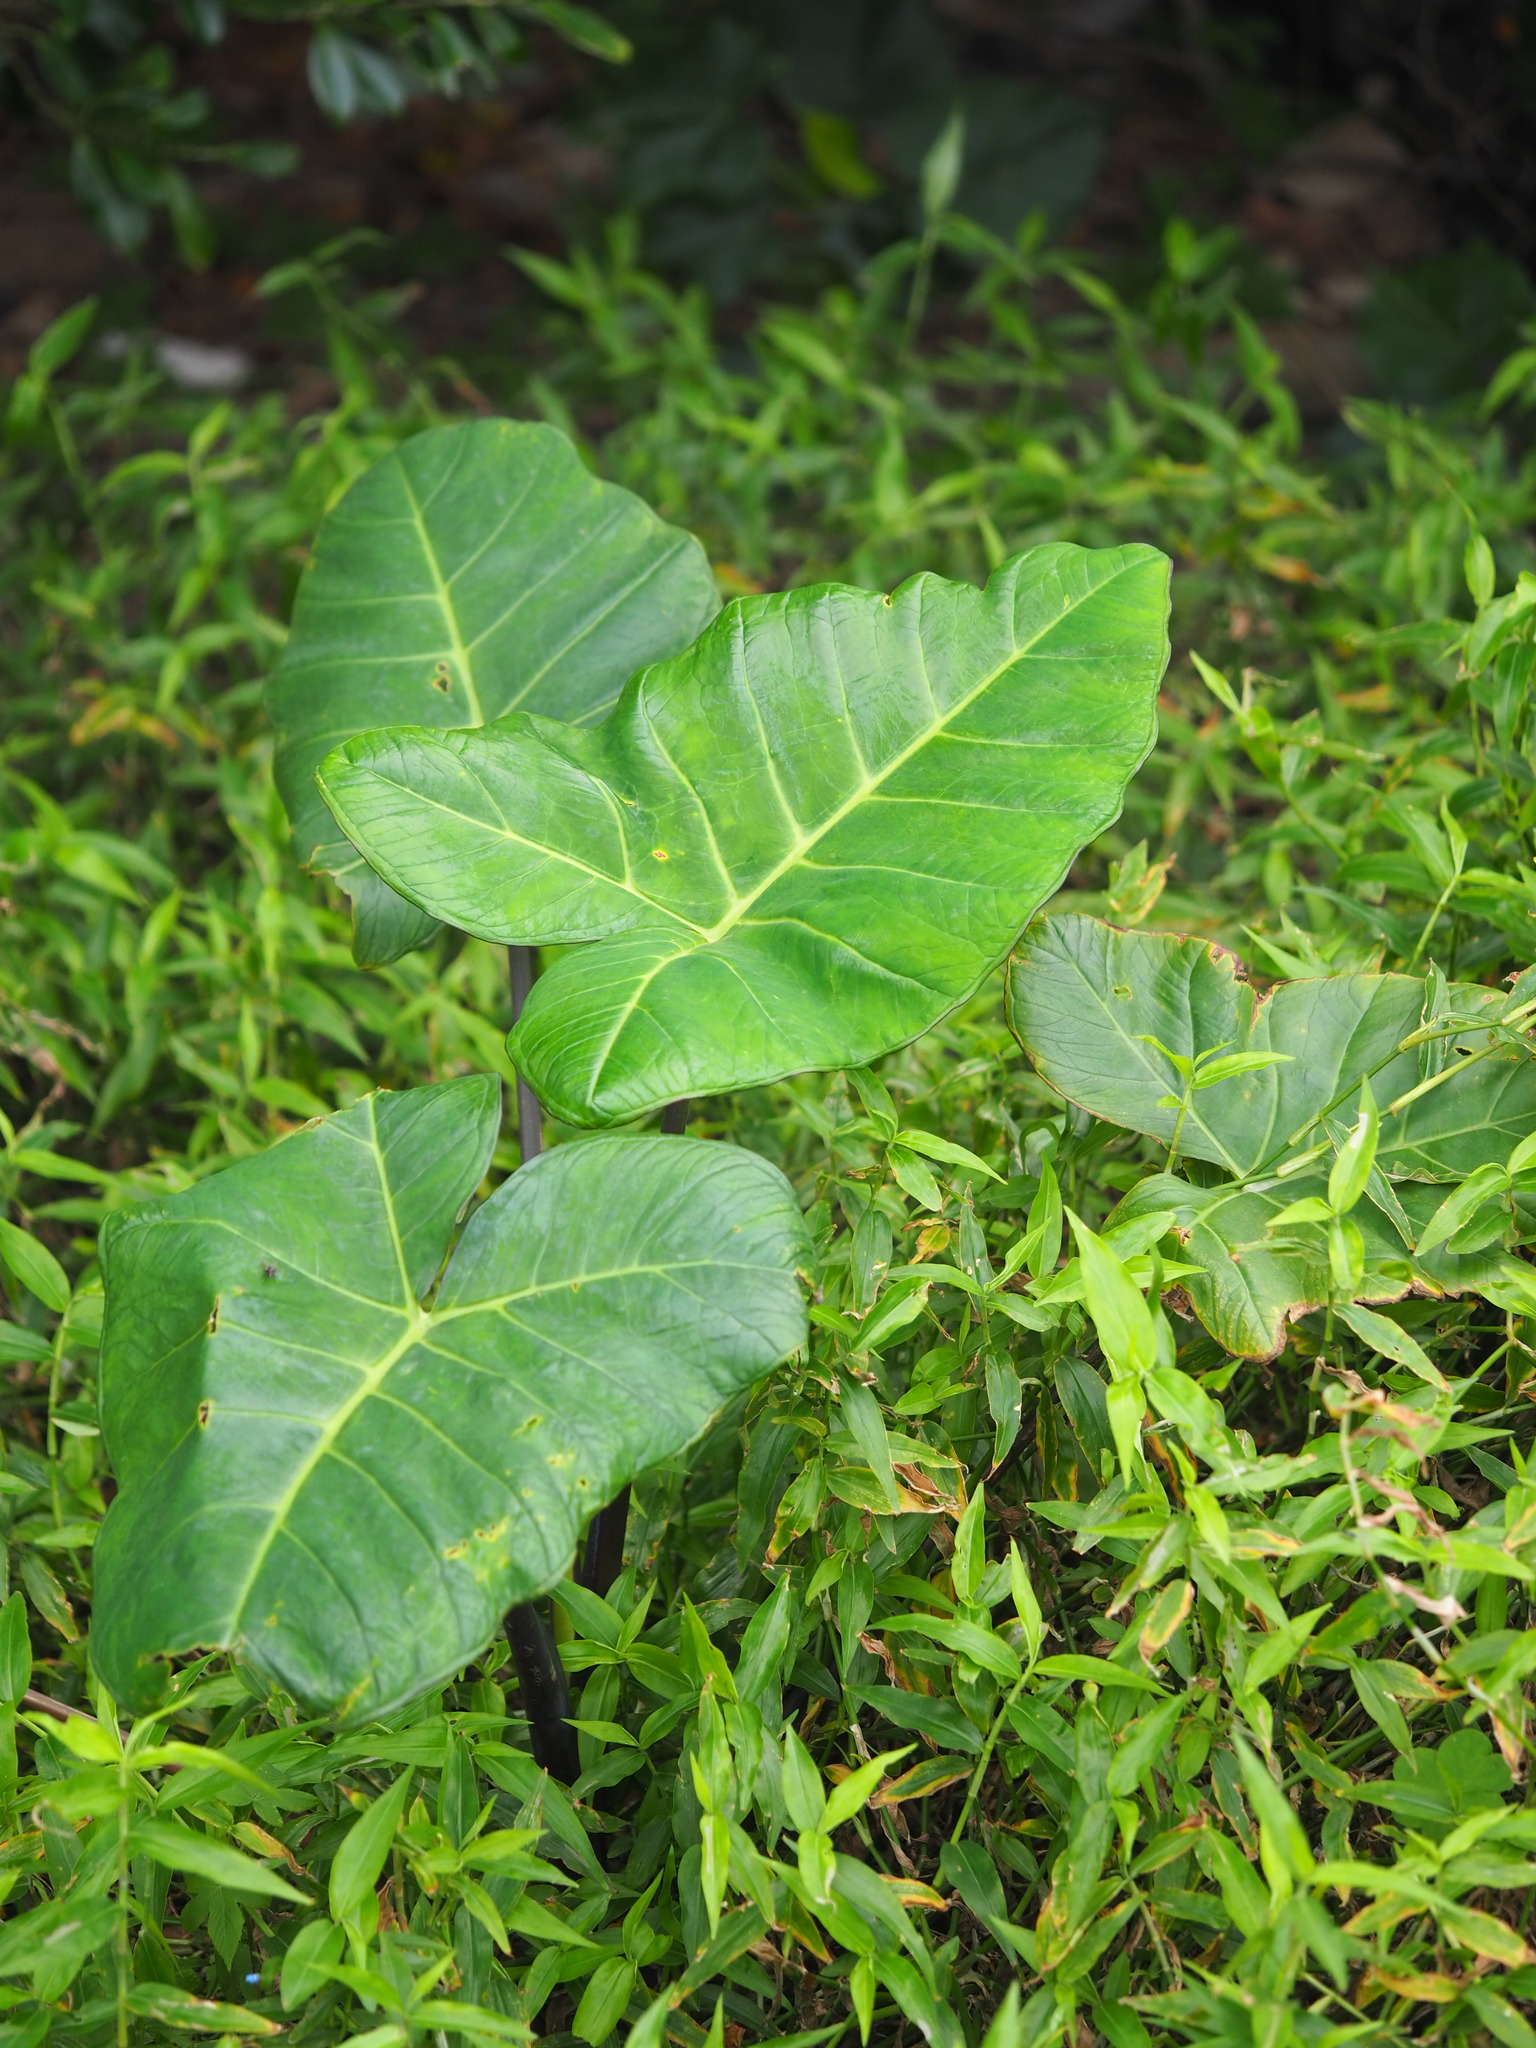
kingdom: Plantae
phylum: Tracheophyta
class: Liliopsida
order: Alismatales
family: Araceae
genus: Xanthosoma
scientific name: Xanthosoma sagittifolium
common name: Arrowleaf elephant's ear
